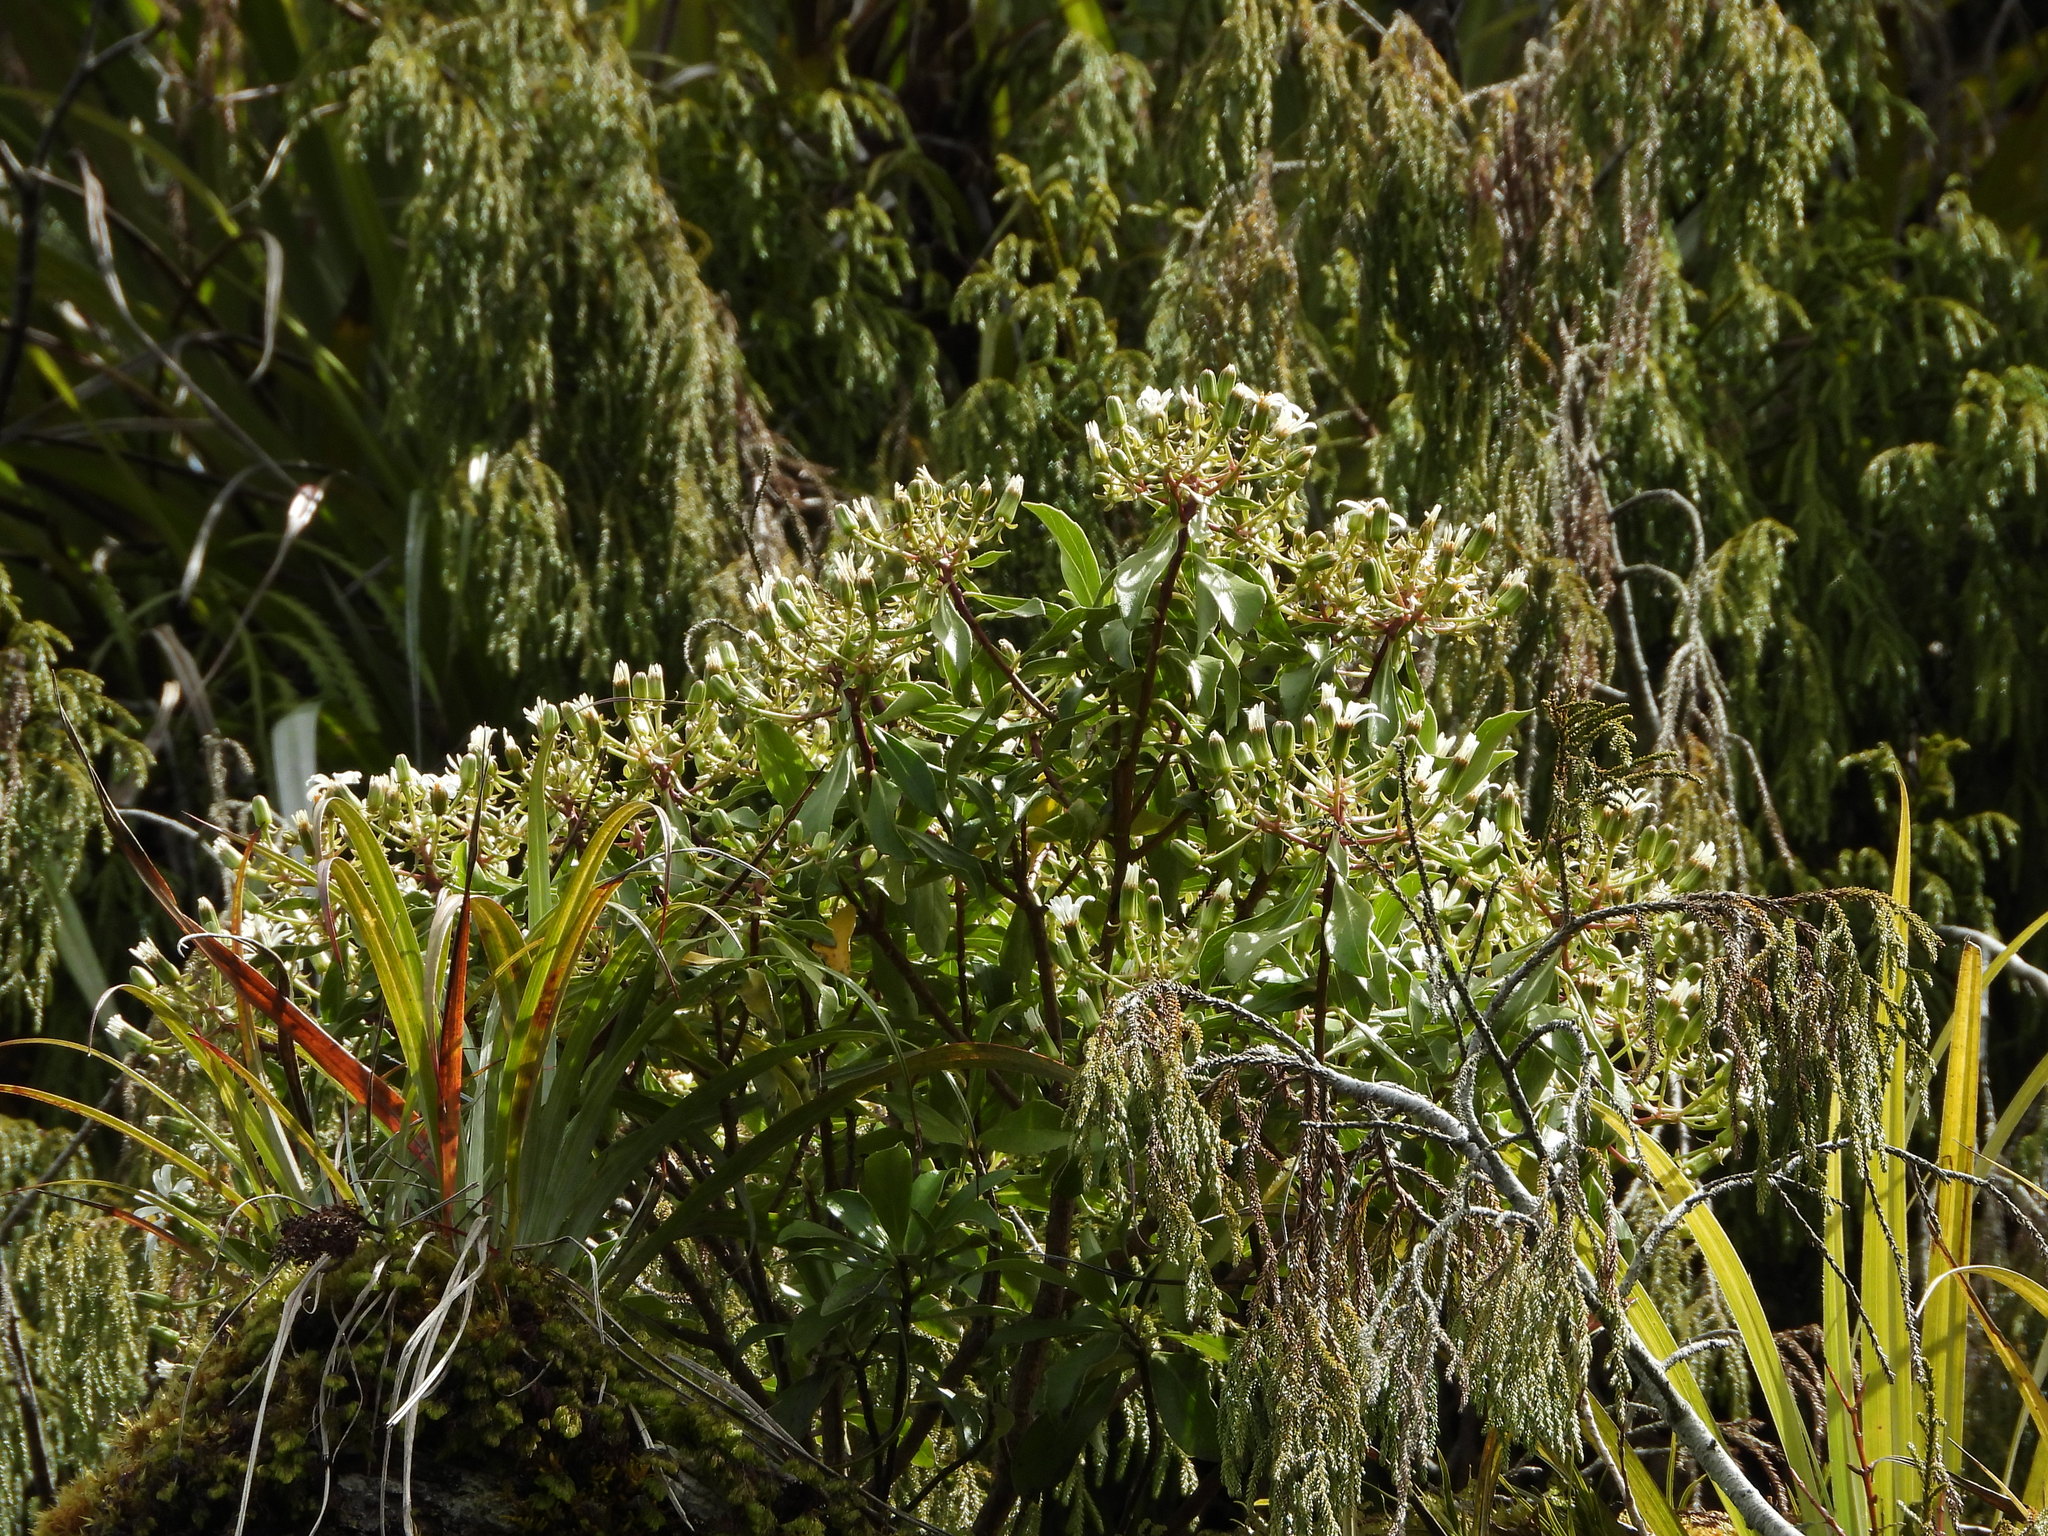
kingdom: Plantae
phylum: Tracheophyta
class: Magnoliopsida
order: Asterales
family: Asteraceae
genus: Brachyglottis
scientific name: Brachyglottis kirkii
